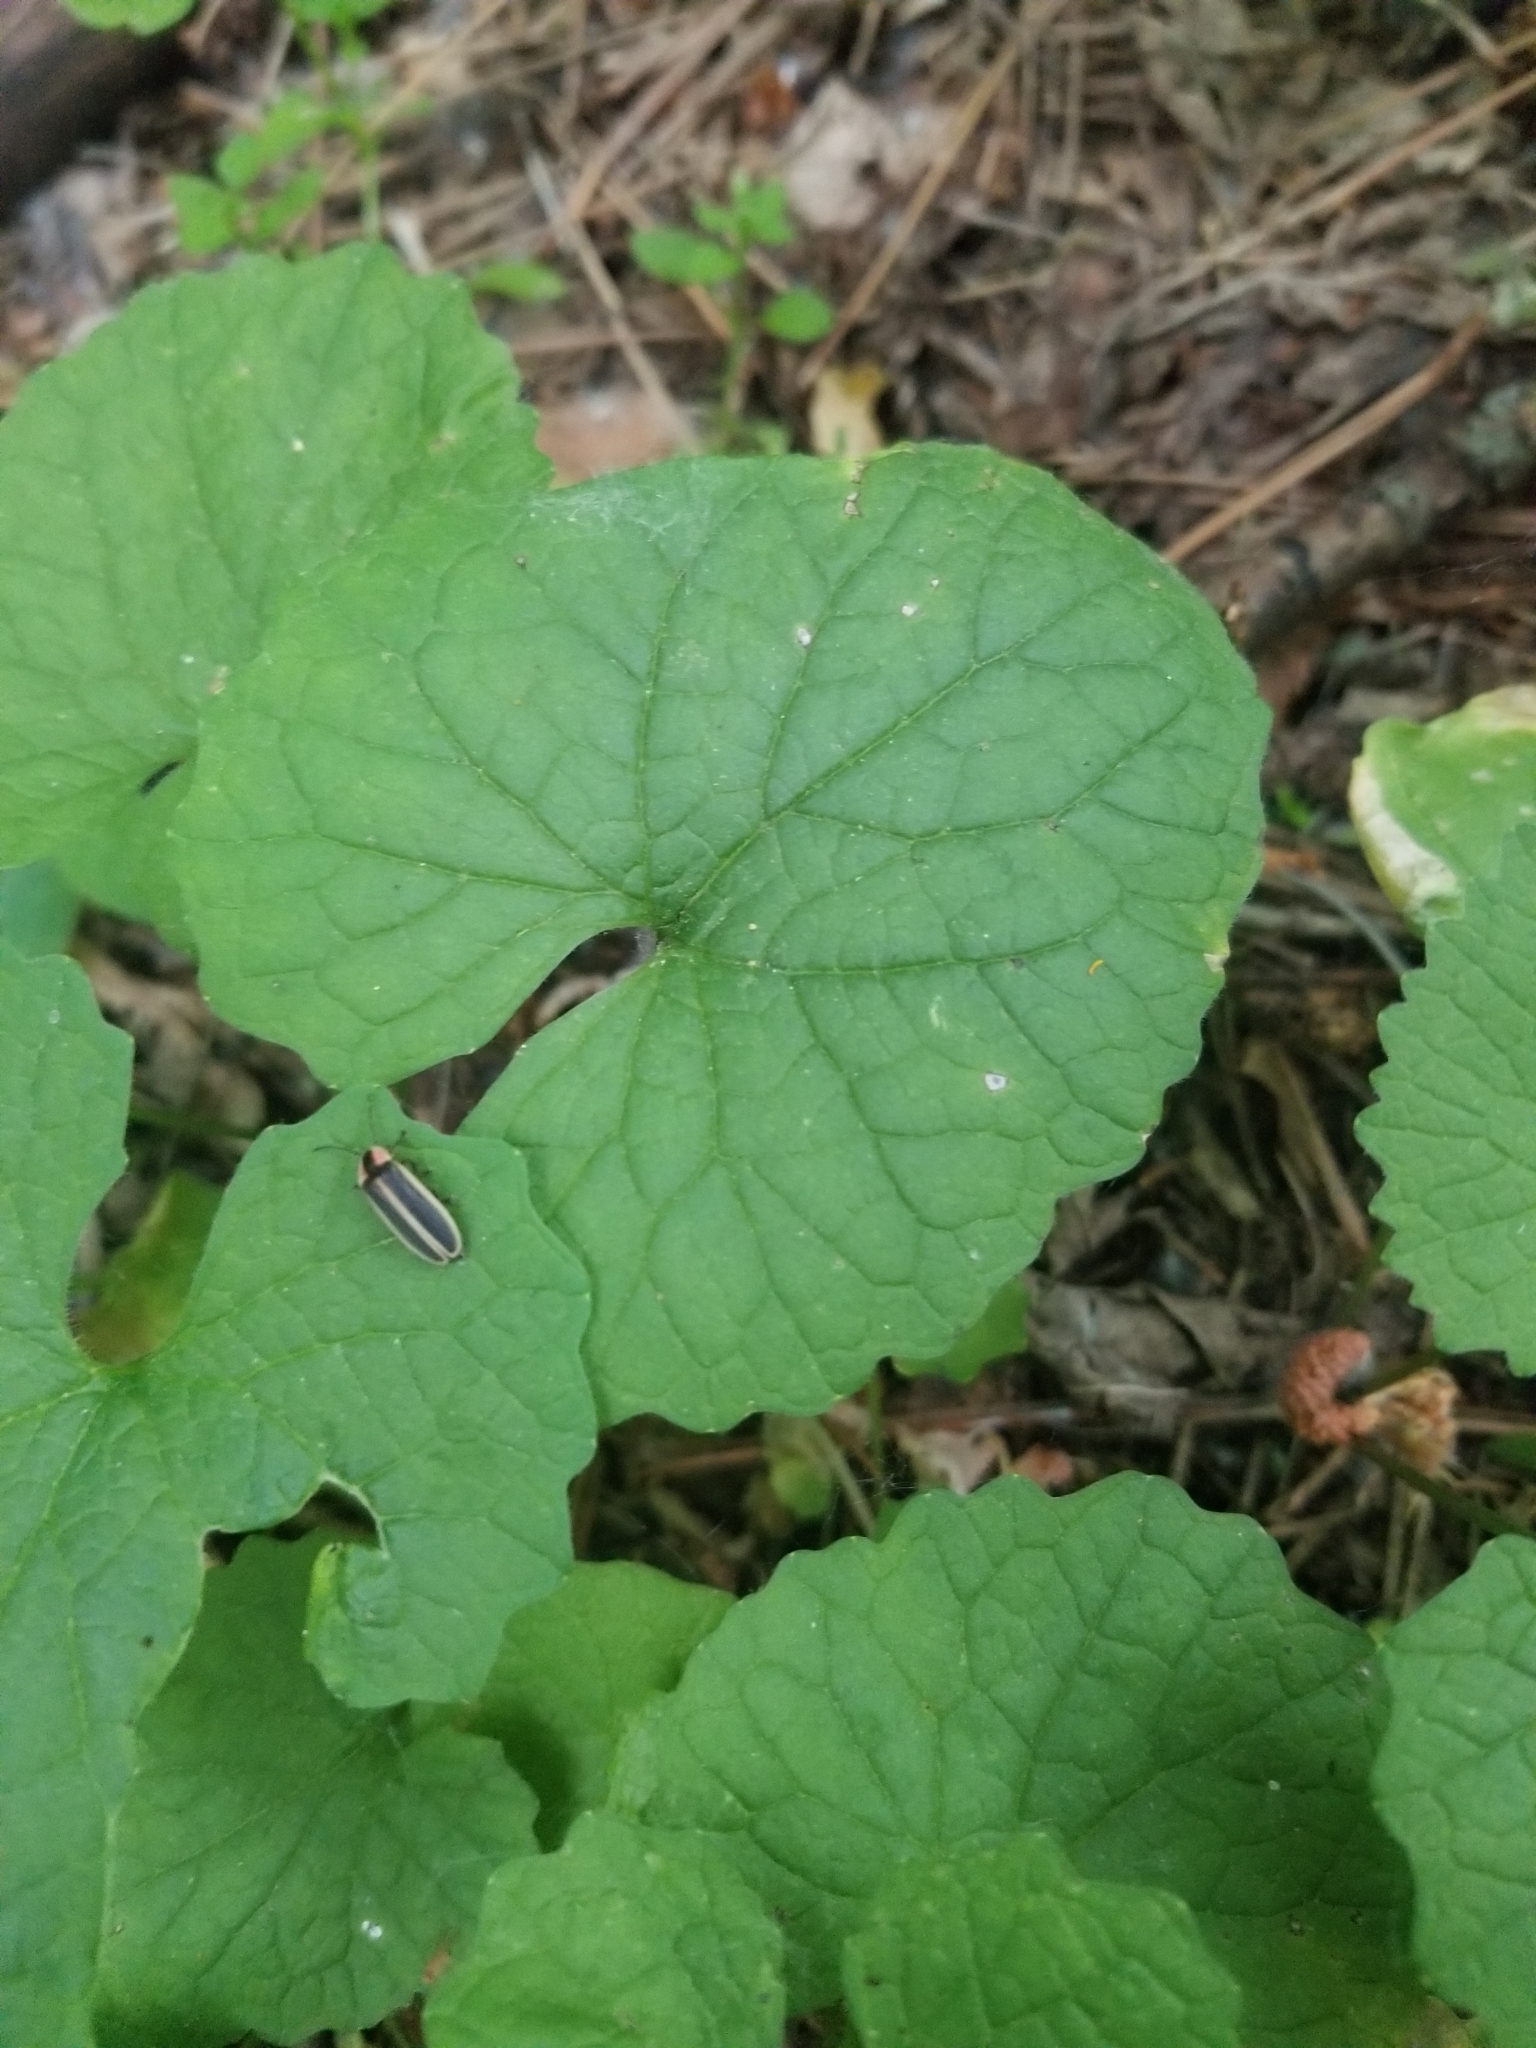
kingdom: Plantae
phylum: Tracheophyta
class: Magnoliopsida
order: Brassicales
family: Brassicaceae
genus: Alliaria
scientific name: Alliaria petiolata
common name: Garlic mustard
